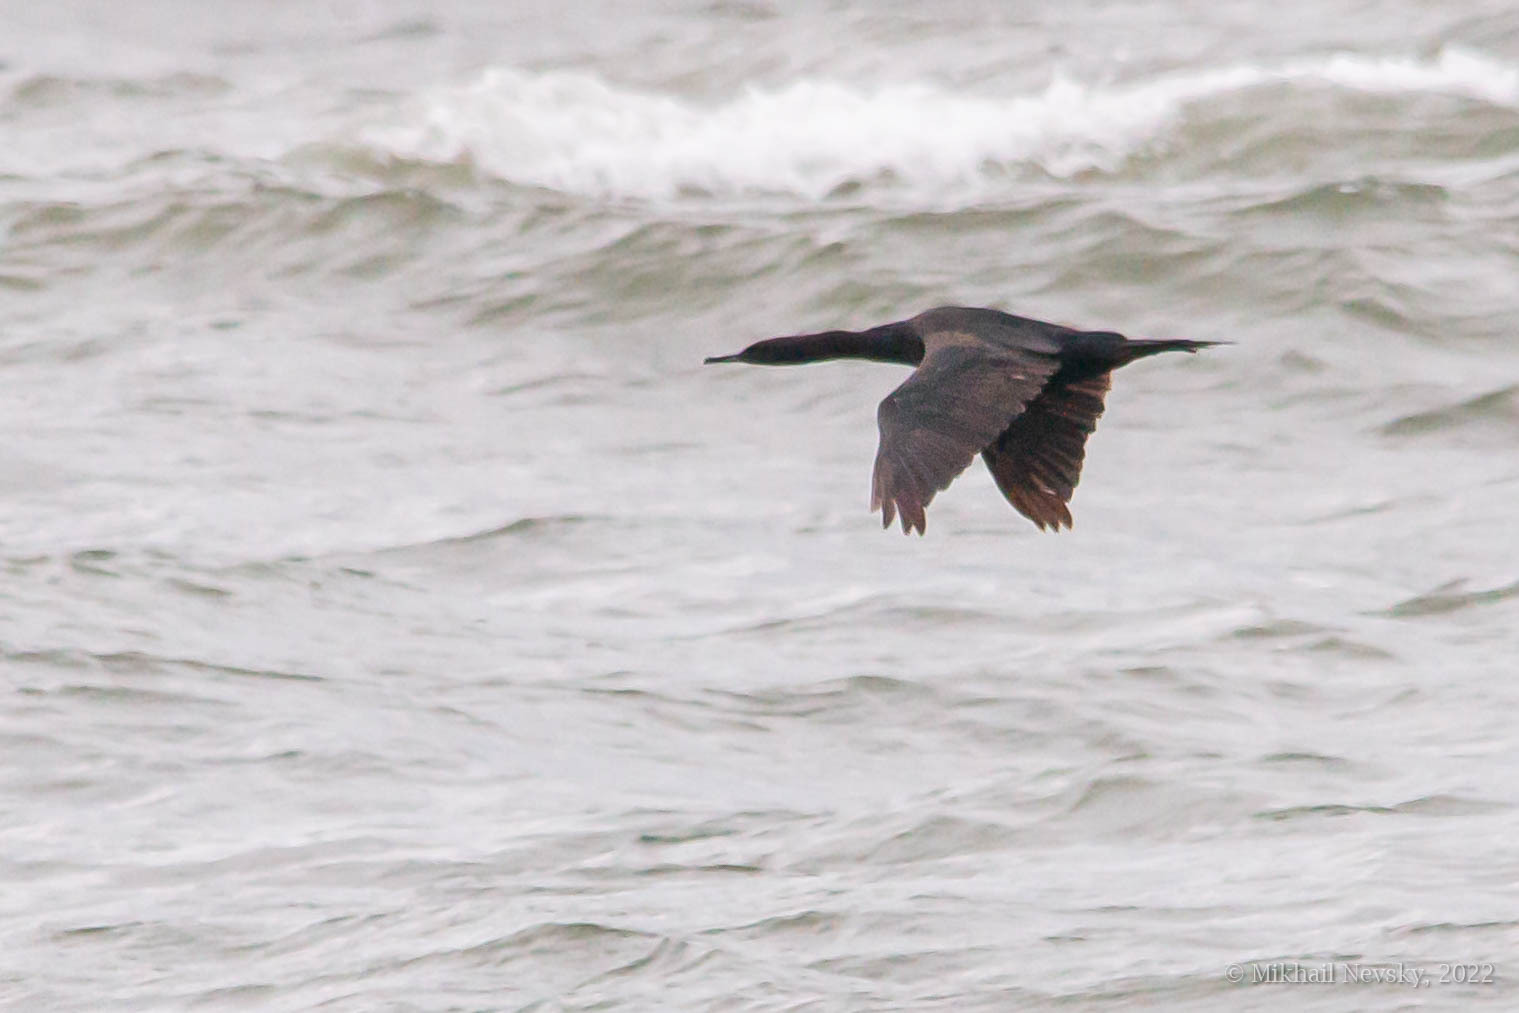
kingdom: Animalia
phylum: Chordata
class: Aves
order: Suliformes
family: Phalacrocoracidae
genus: Phalacrocorax
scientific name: Phalacrocorax pelagicus
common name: Pelagic cormorant
